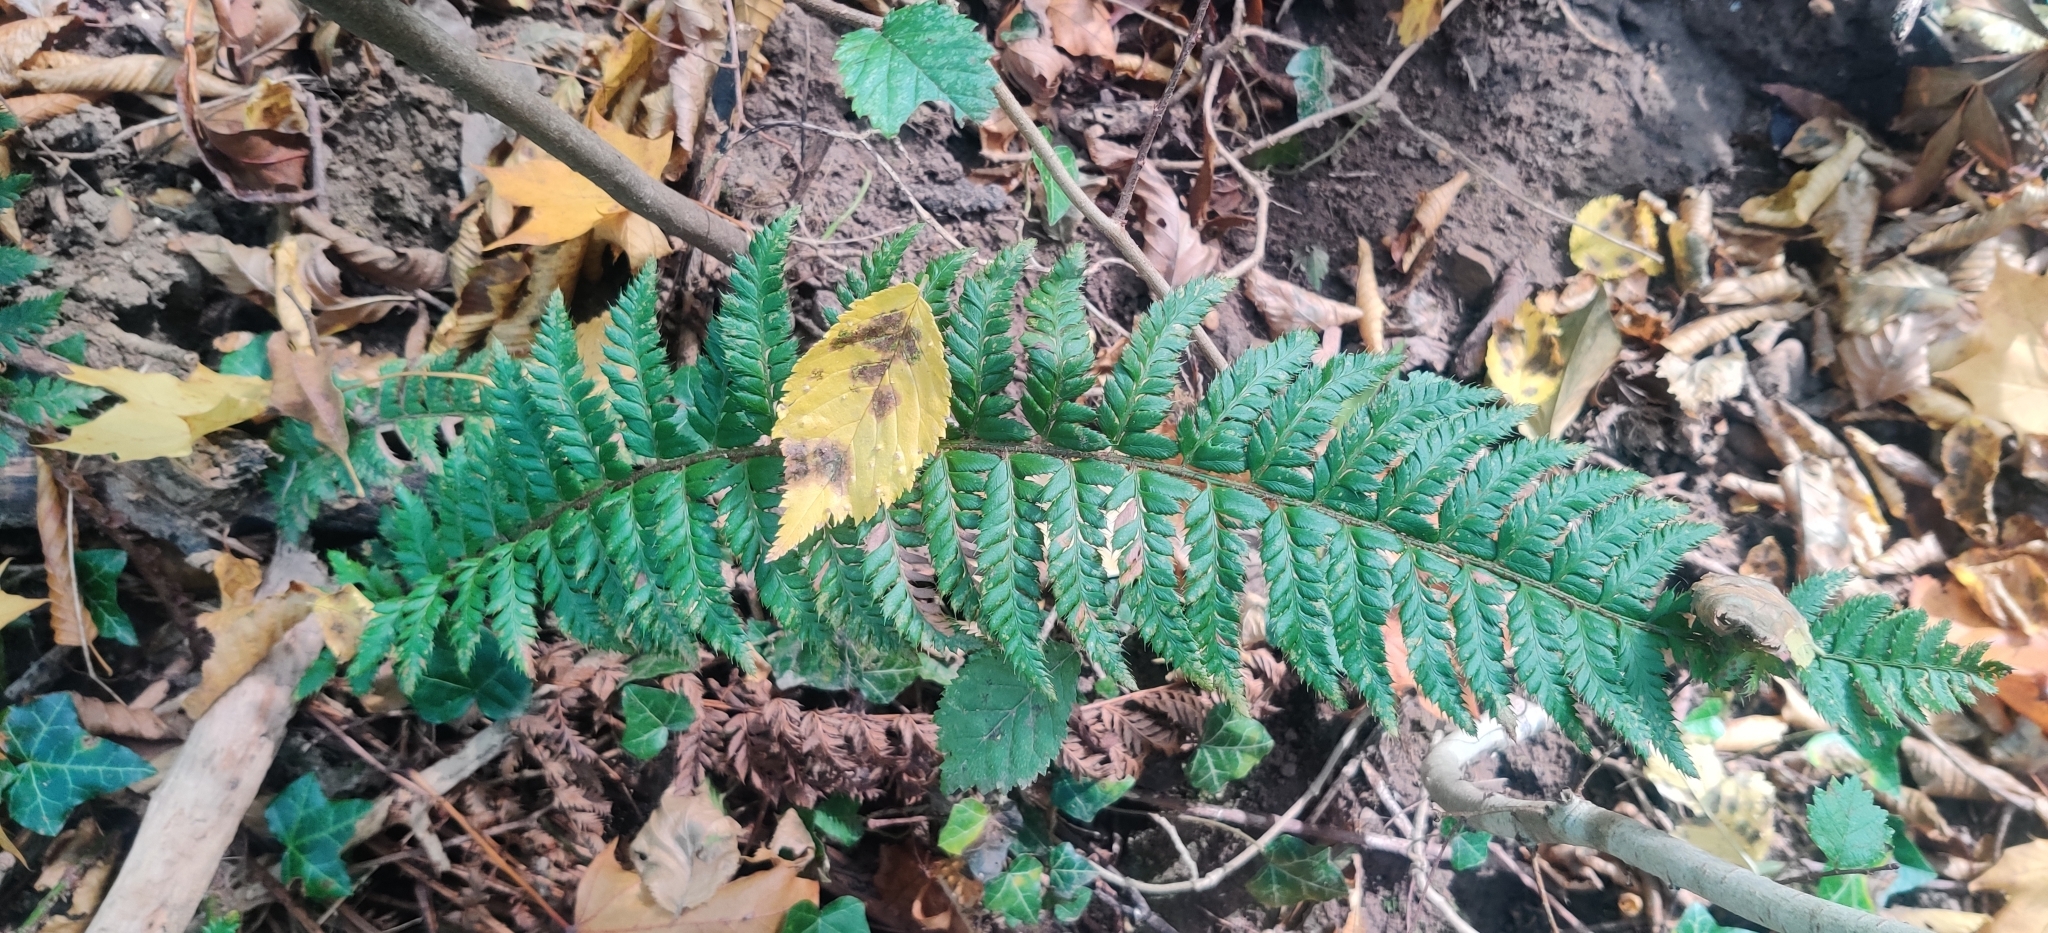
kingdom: Plantae
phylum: Tracheophyta
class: Polypodiopsida
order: Polypodiales
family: Dryopteridaceae
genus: Polystichum
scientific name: Polystichum aculeatum
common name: Hard shield-fern
